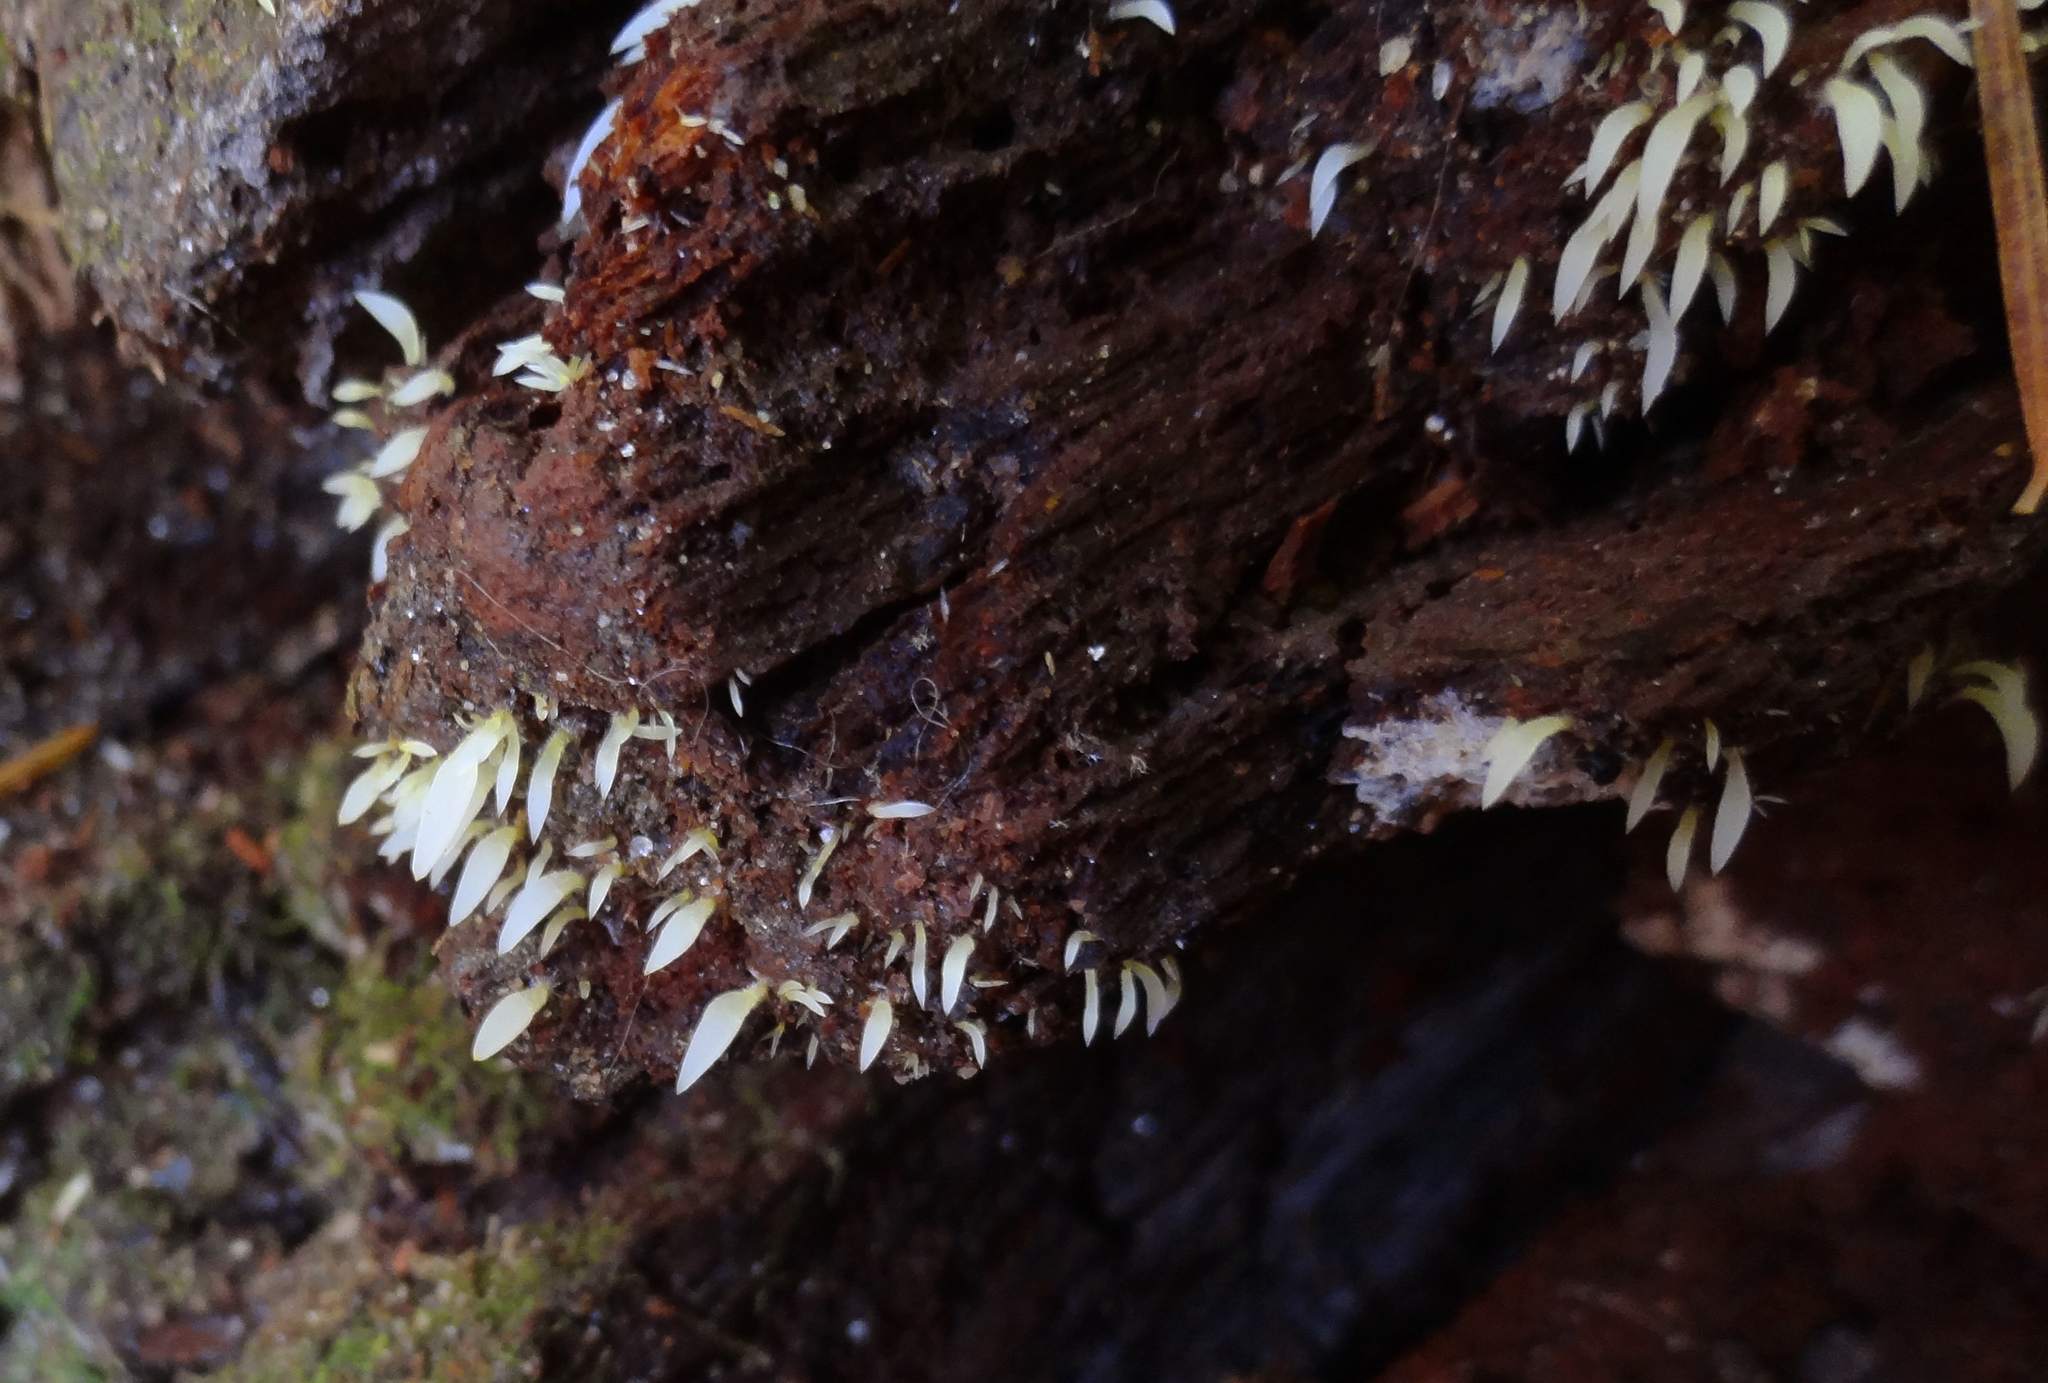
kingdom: Fungi
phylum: Basidiomycota
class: Agaricomycetes
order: Agaricales
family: Clavariaceae
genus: Mucronella
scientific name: Mucronella fusiformis
